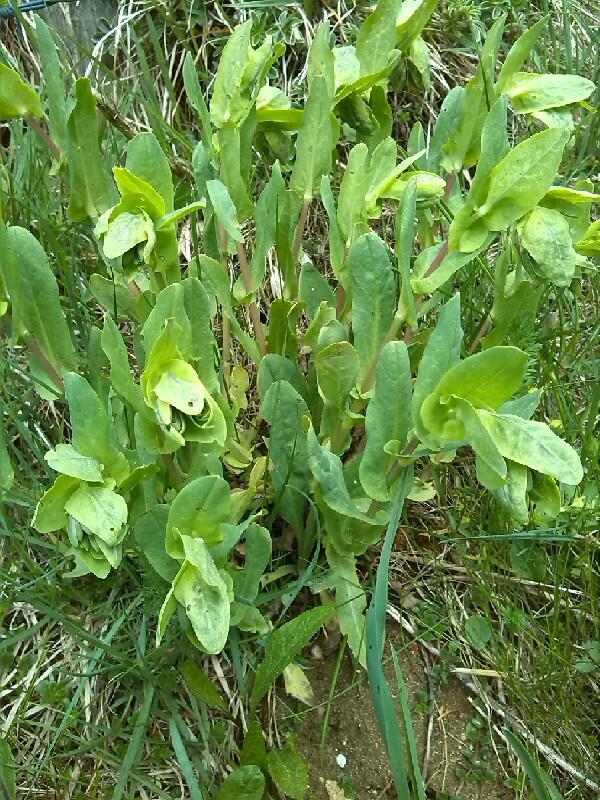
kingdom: Plantae
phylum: Tracheophyta
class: Magnoliopsida
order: Boraginales
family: Boraginaceae
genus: Cerinthe
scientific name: Cerinthe glabra
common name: Smooth honeywort
